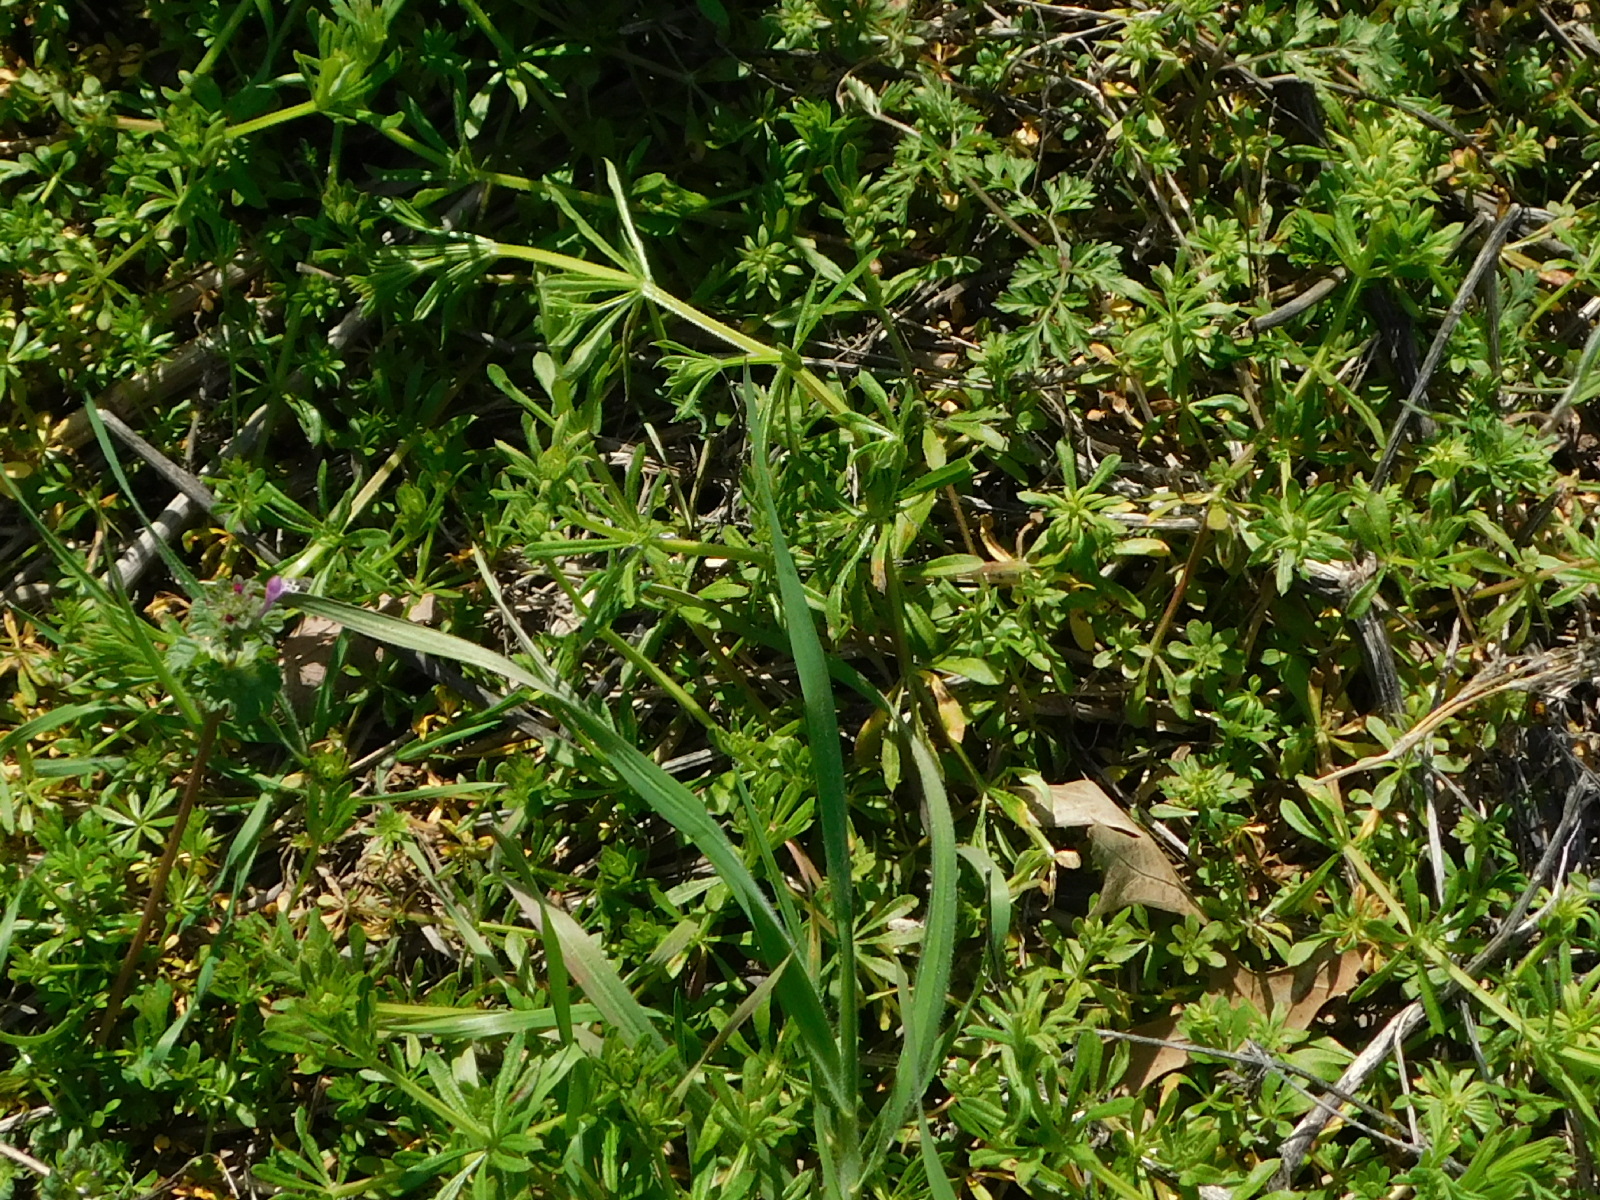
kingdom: Plantae
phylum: Tracheophyta
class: Magnoliopsida
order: Gentianales
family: Rubiaceae
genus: Galium
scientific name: Galium aparine
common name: Cleavers
